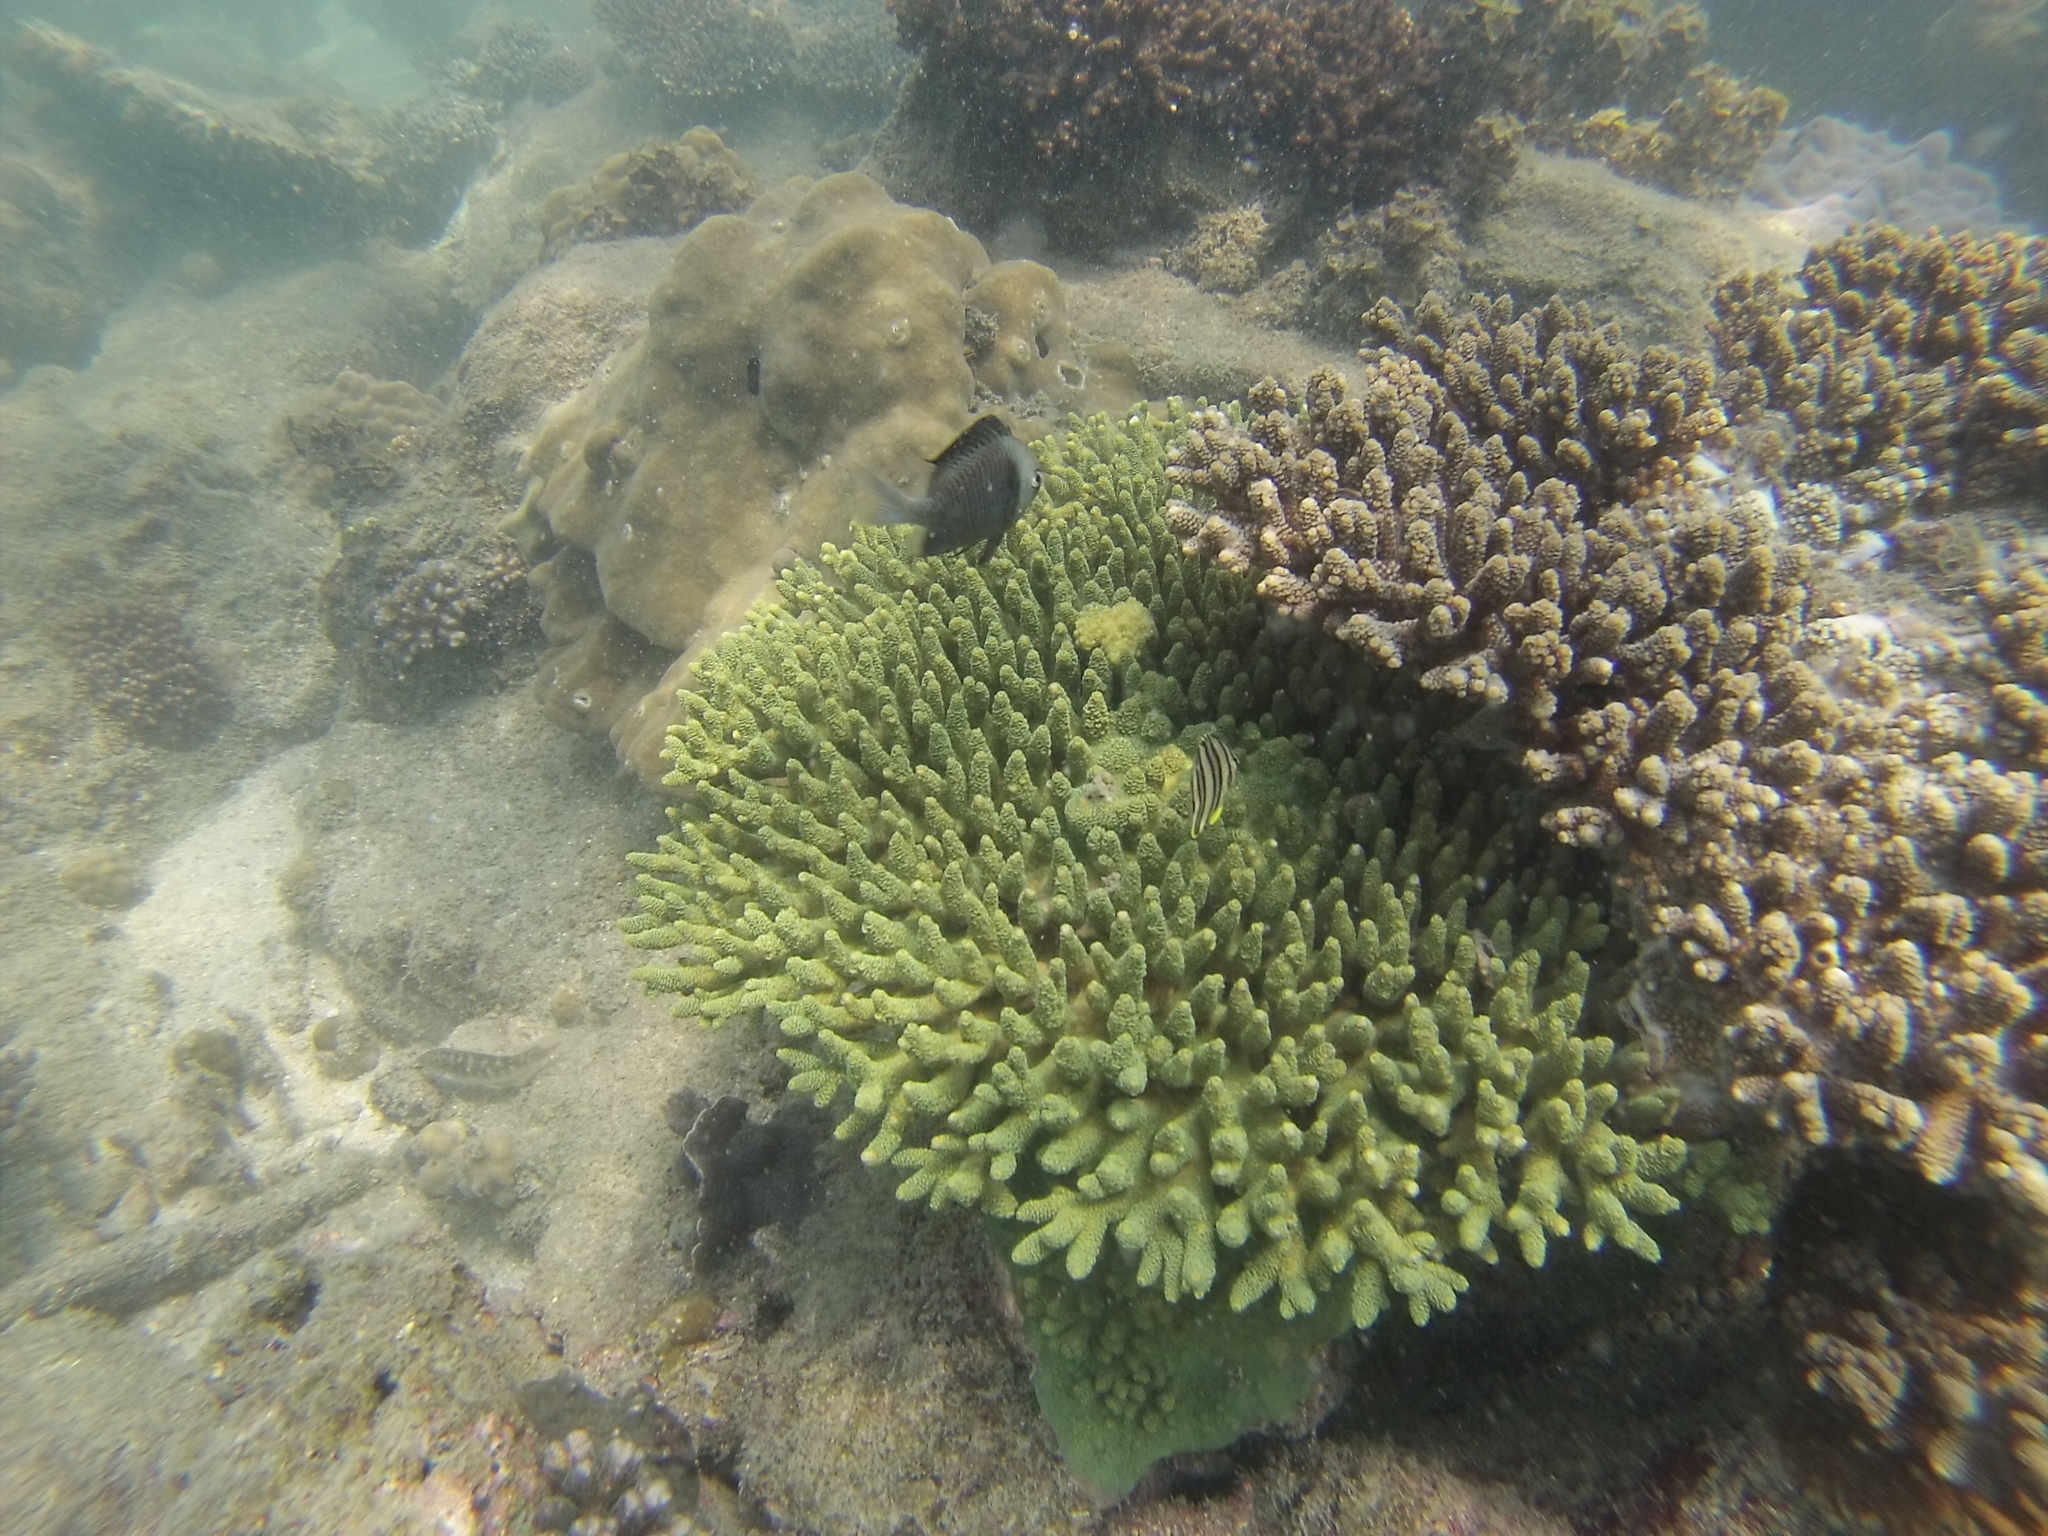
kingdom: Animalia
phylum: Chordata
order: Perciformes
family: Pomacentridae
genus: Dascyllus
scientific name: Dascyllus reticulatus
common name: Reticulated dascyllus
